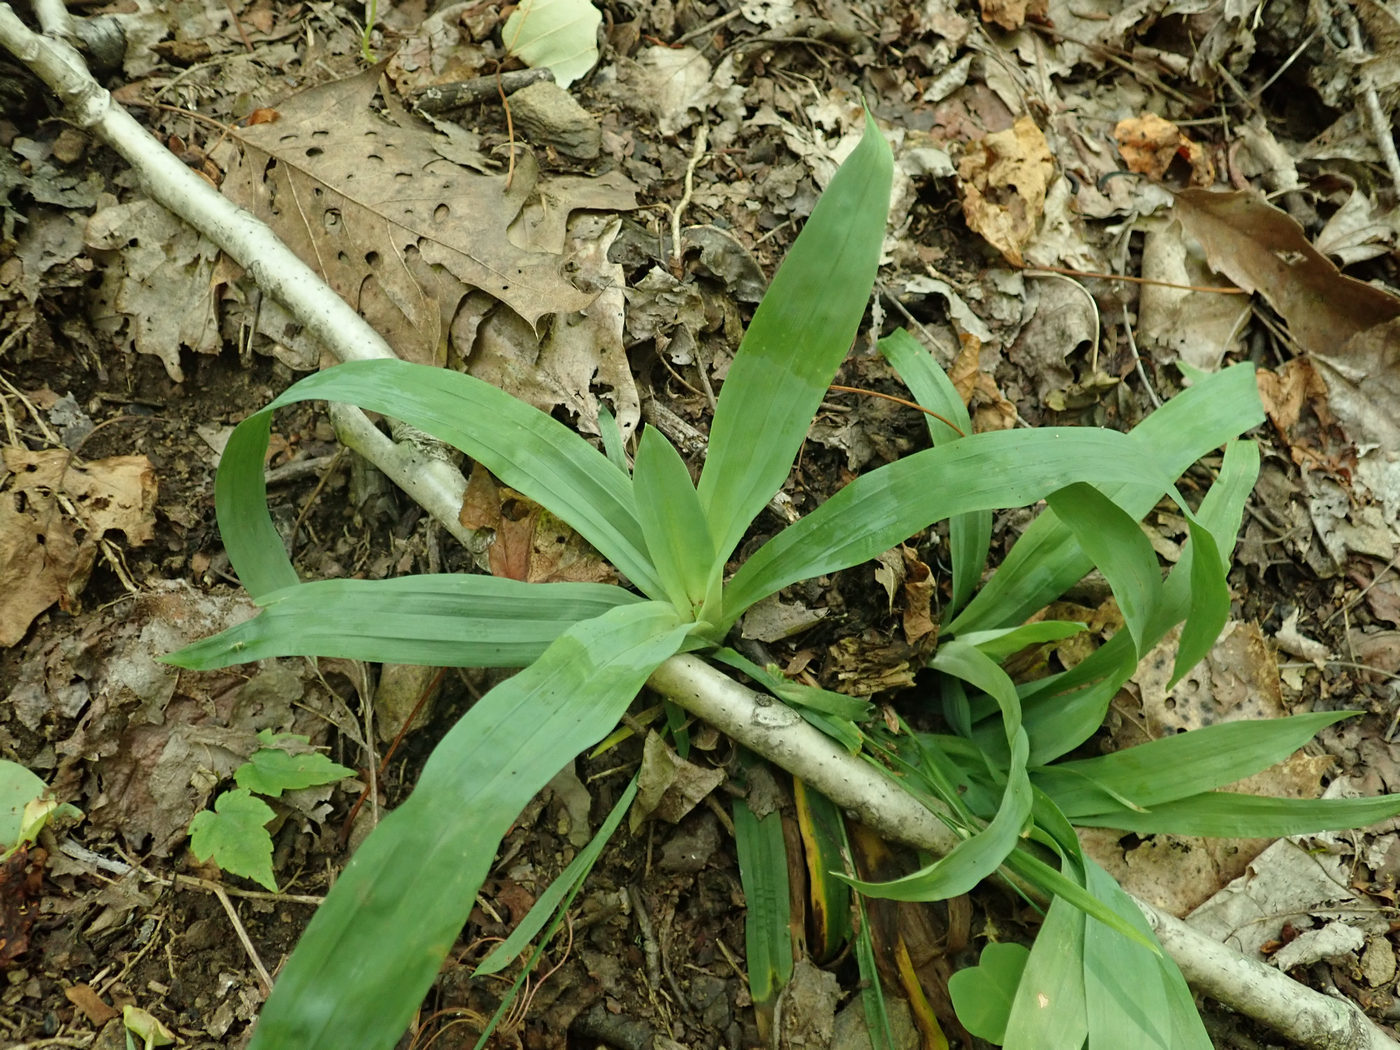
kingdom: Plantae
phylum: Tracheophyta
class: Liliopsida
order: Poales
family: Cyperaceae
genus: Carex
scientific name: Carex platyphylla
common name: Broad-leaved sedge
